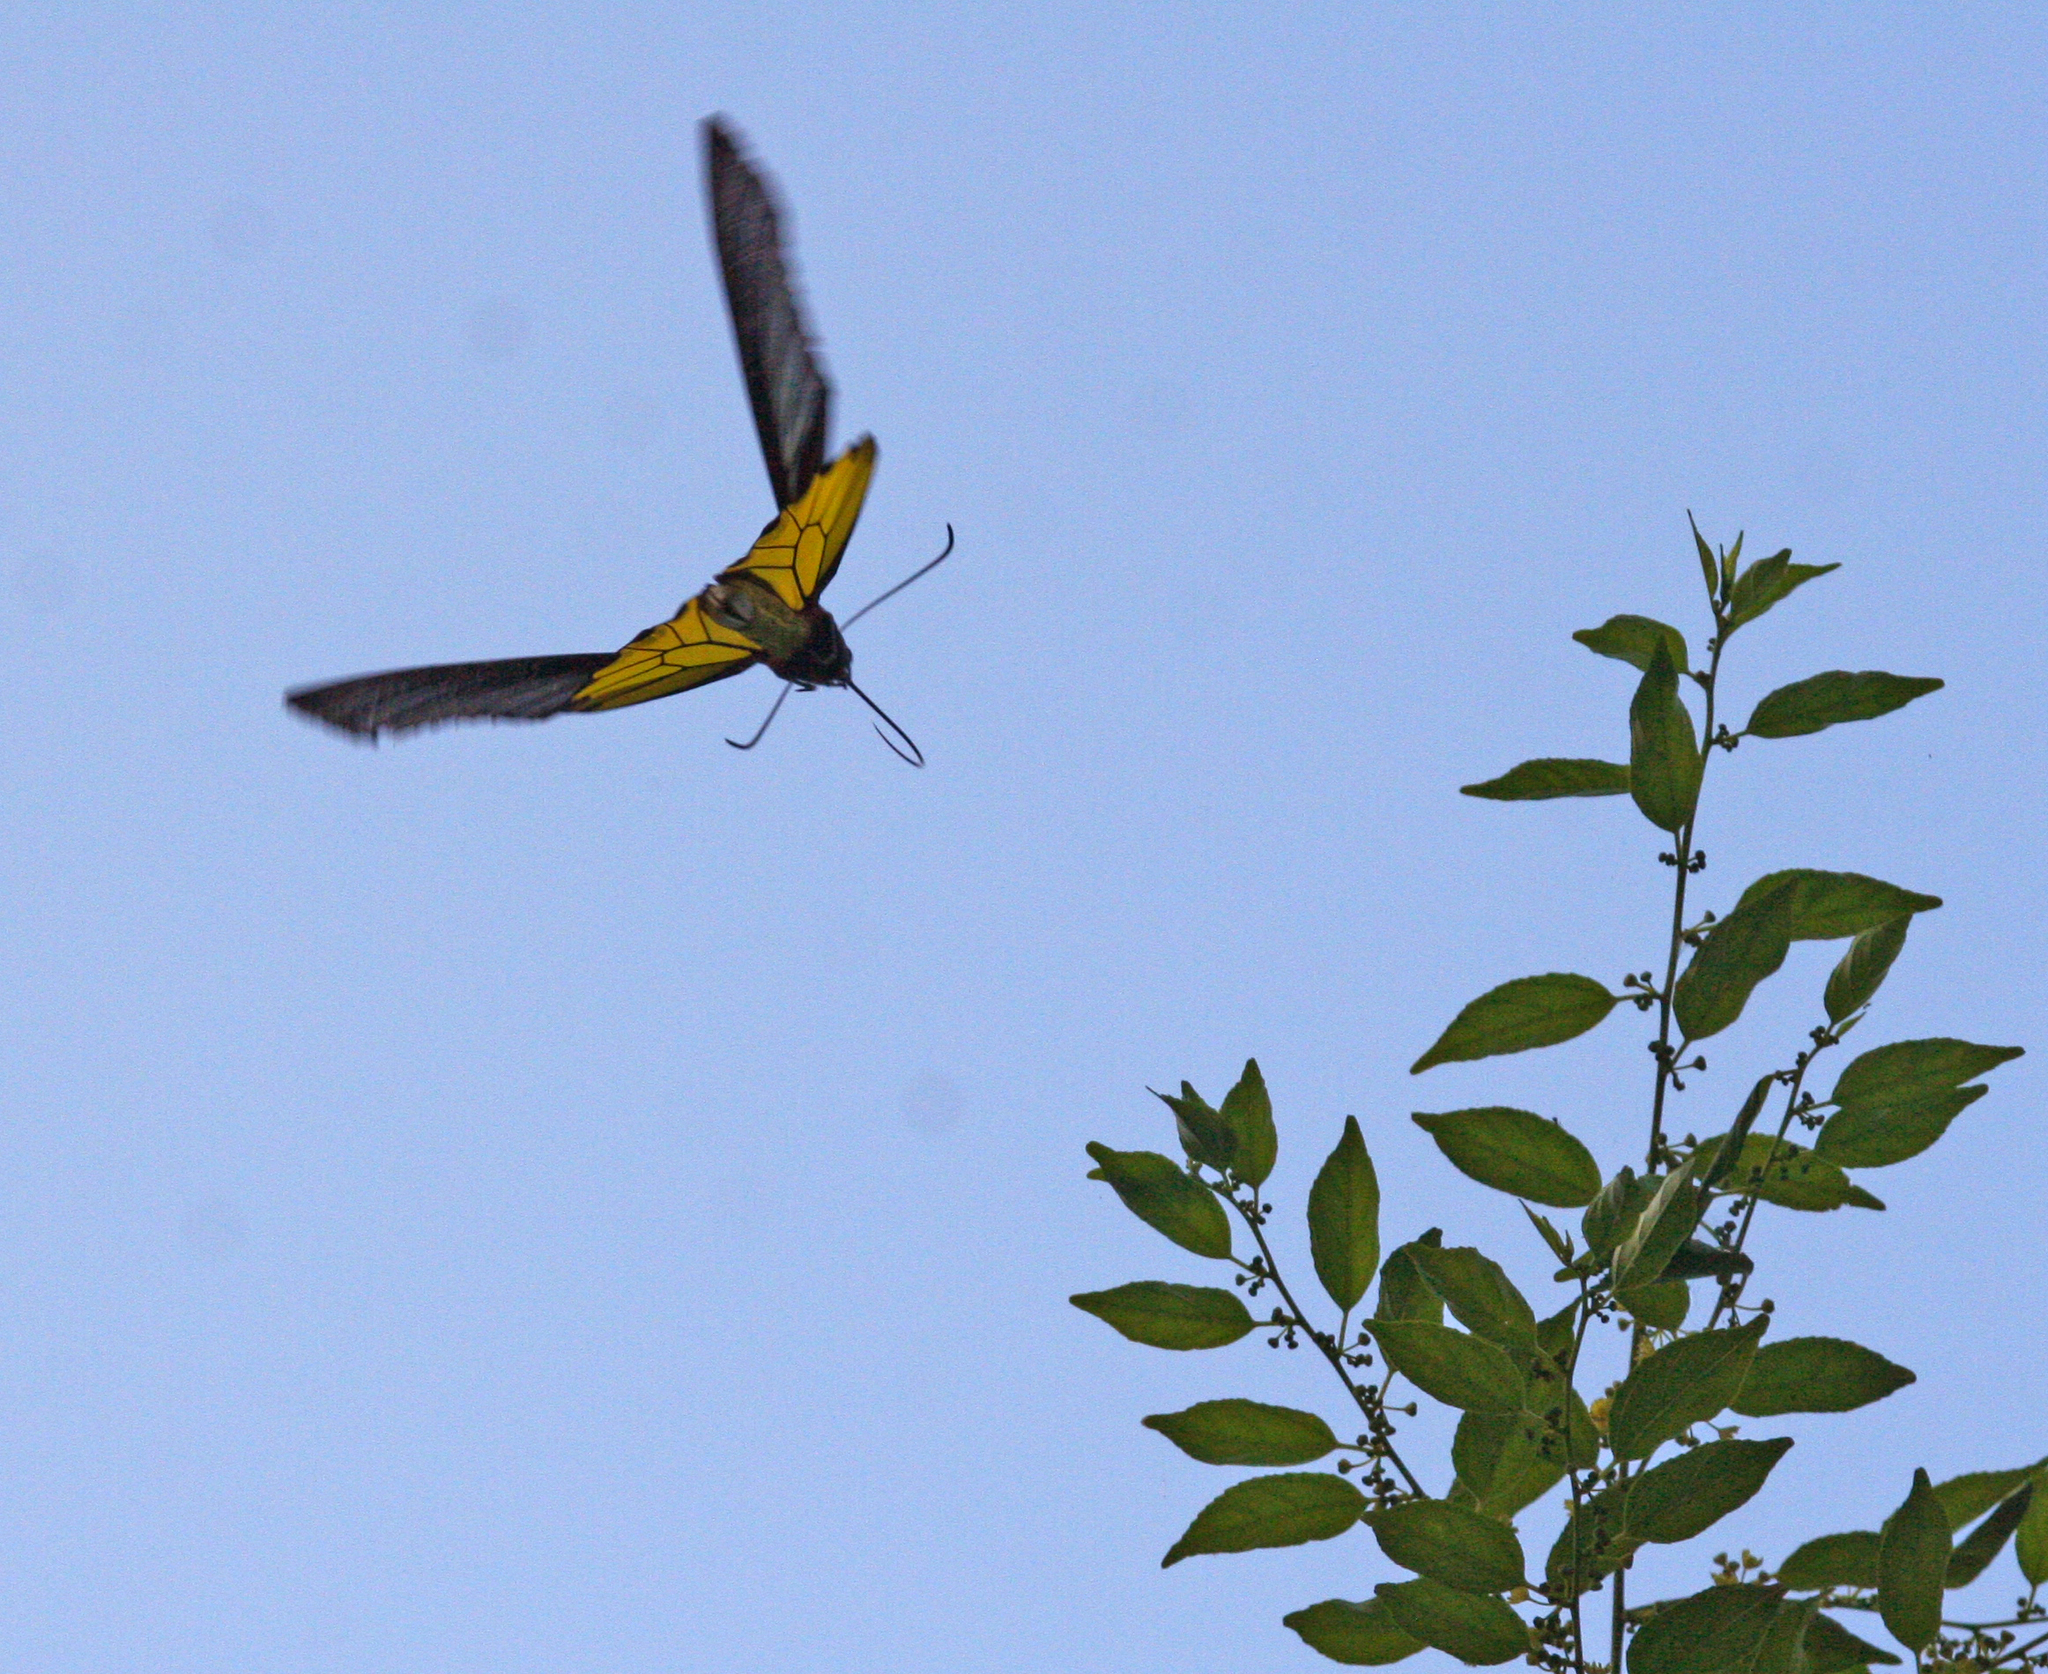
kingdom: Animalia
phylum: Arthropoda
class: Insecta
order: Lepidoptera
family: Papilionidae
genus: Troides
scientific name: Troides aeacus
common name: Golden birdwing
